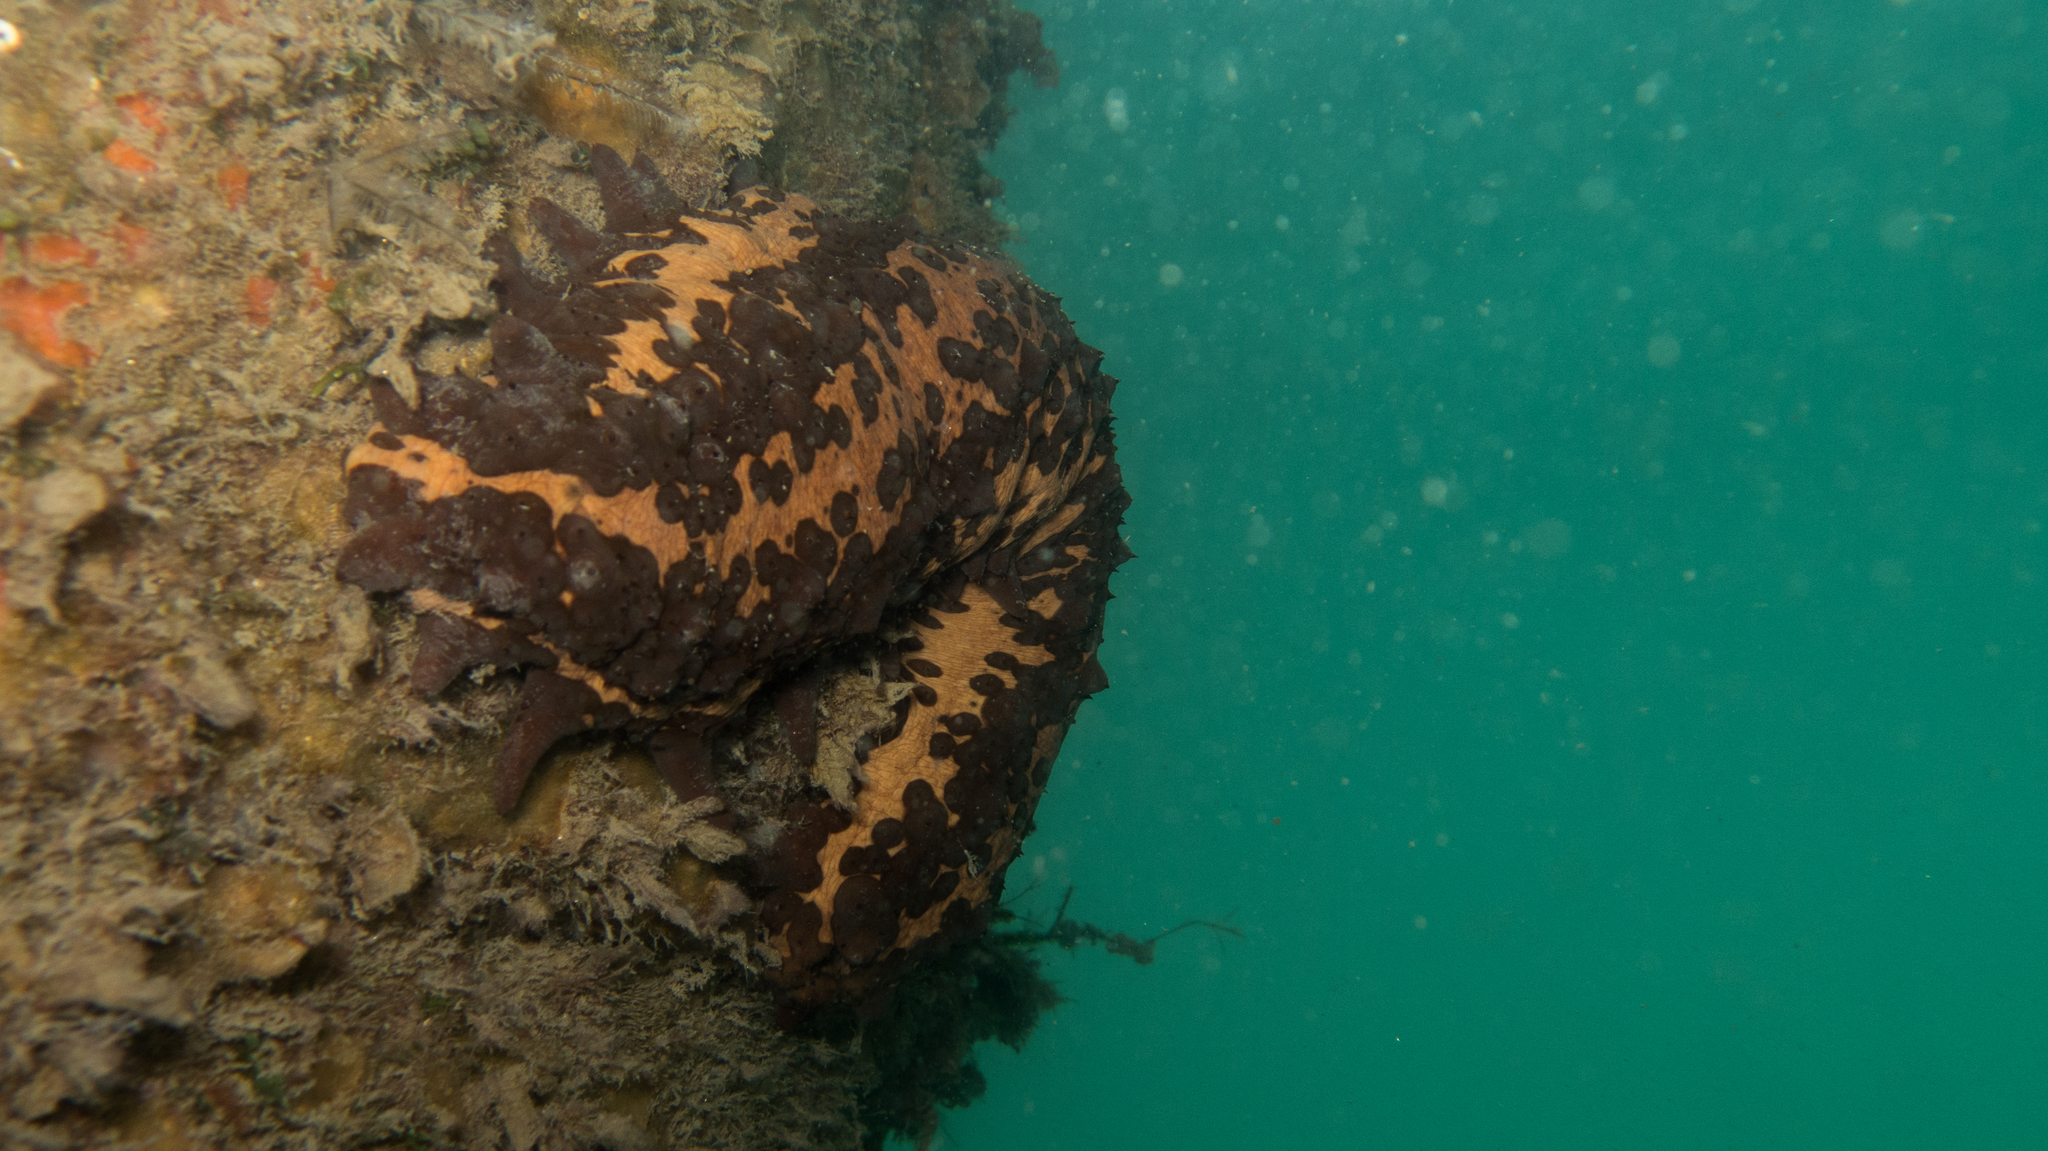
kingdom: Animalia
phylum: Echinodermata
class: Holothuroidea
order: Synallactida
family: Stichopodidae
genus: Isostichopus
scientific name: Isostichopus badionotus
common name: Chocolate chip cucumber
